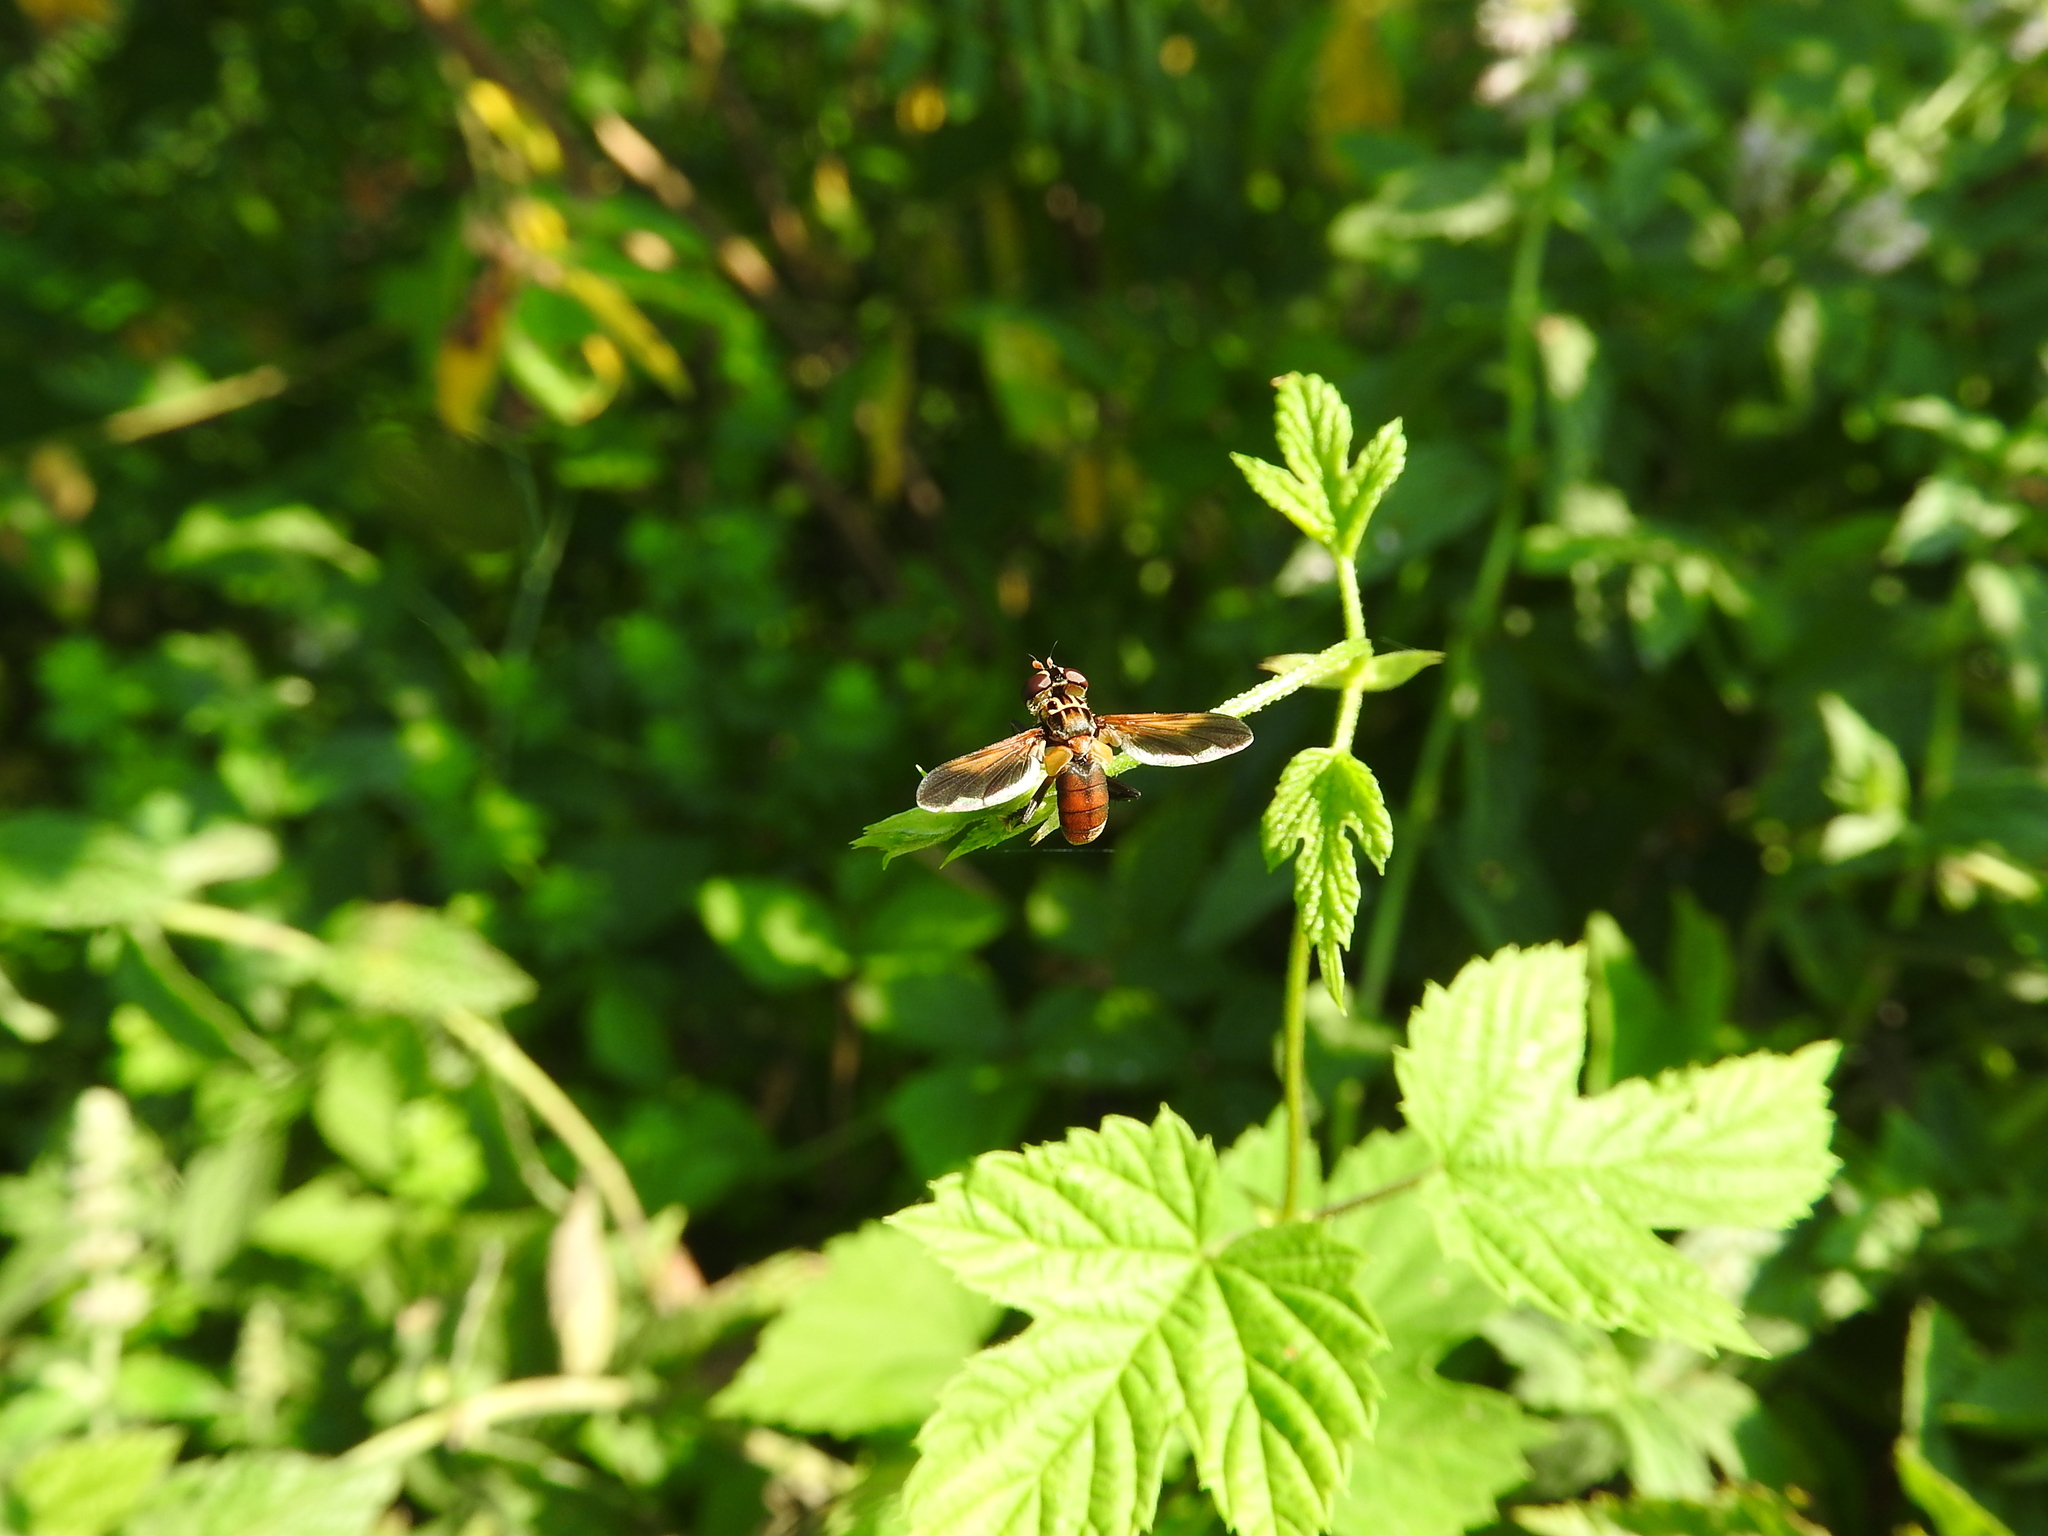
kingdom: Animalia
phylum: Arthropoda
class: Insecta
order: Diptera
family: Tachinidae
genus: Trichopoda
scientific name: Trichopoda pictipennis
